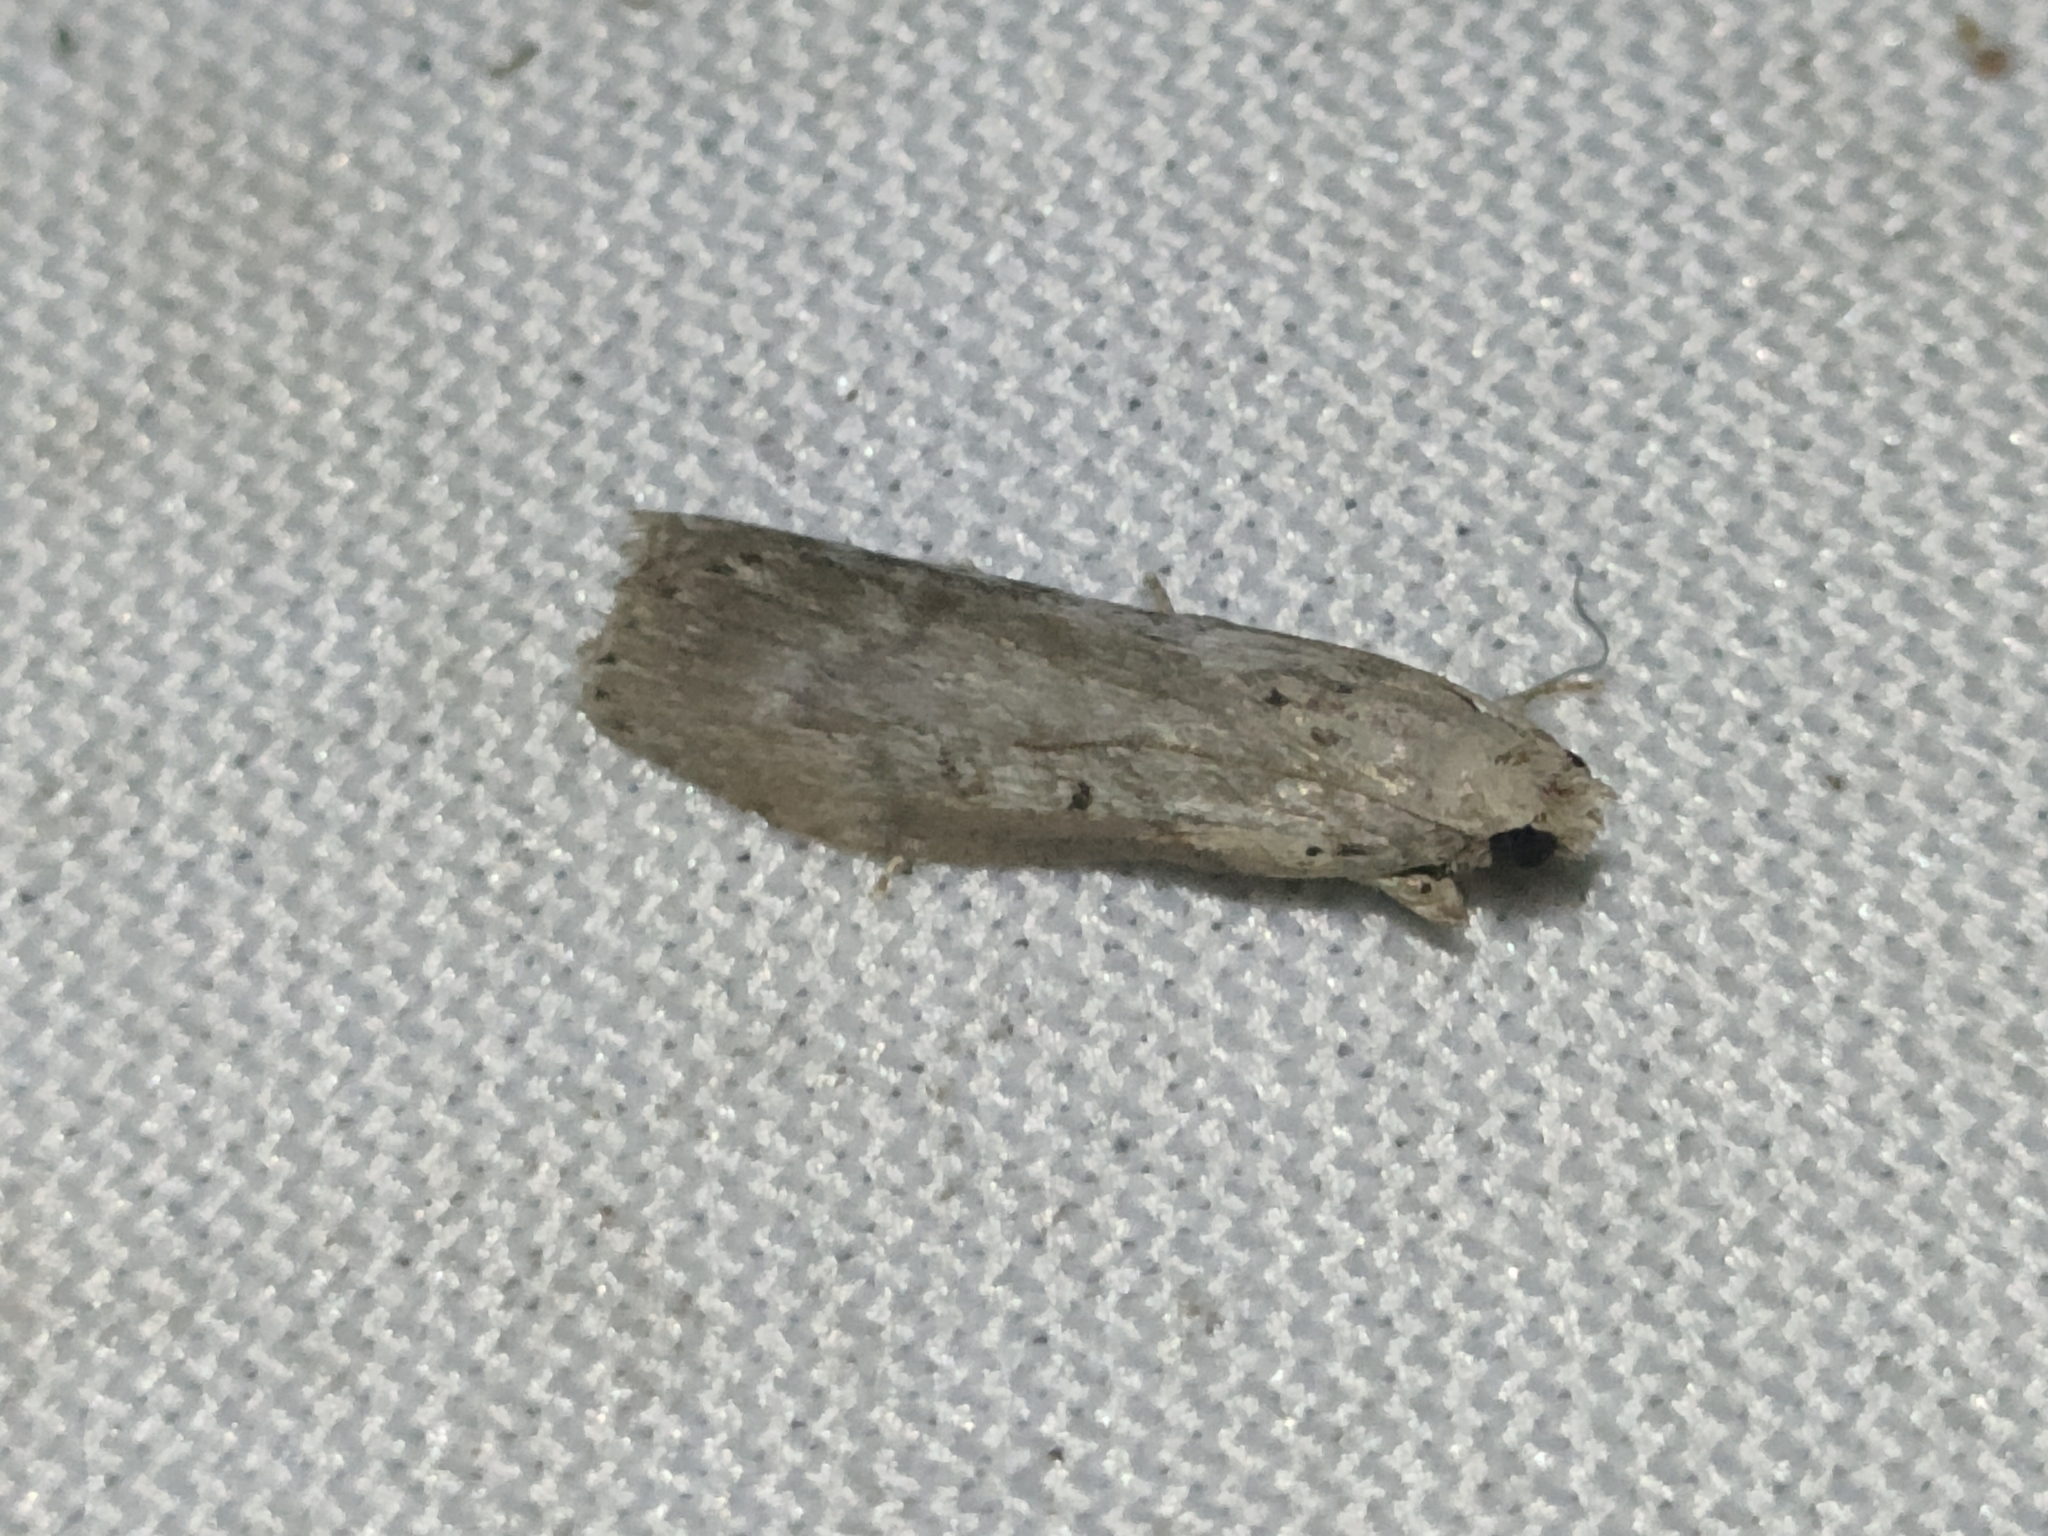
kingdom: Animalia
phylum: Arthropoda
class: Insecta
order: Lepidoptera
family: Pyralidae
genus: Lamoria
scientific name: Lamoria anella
